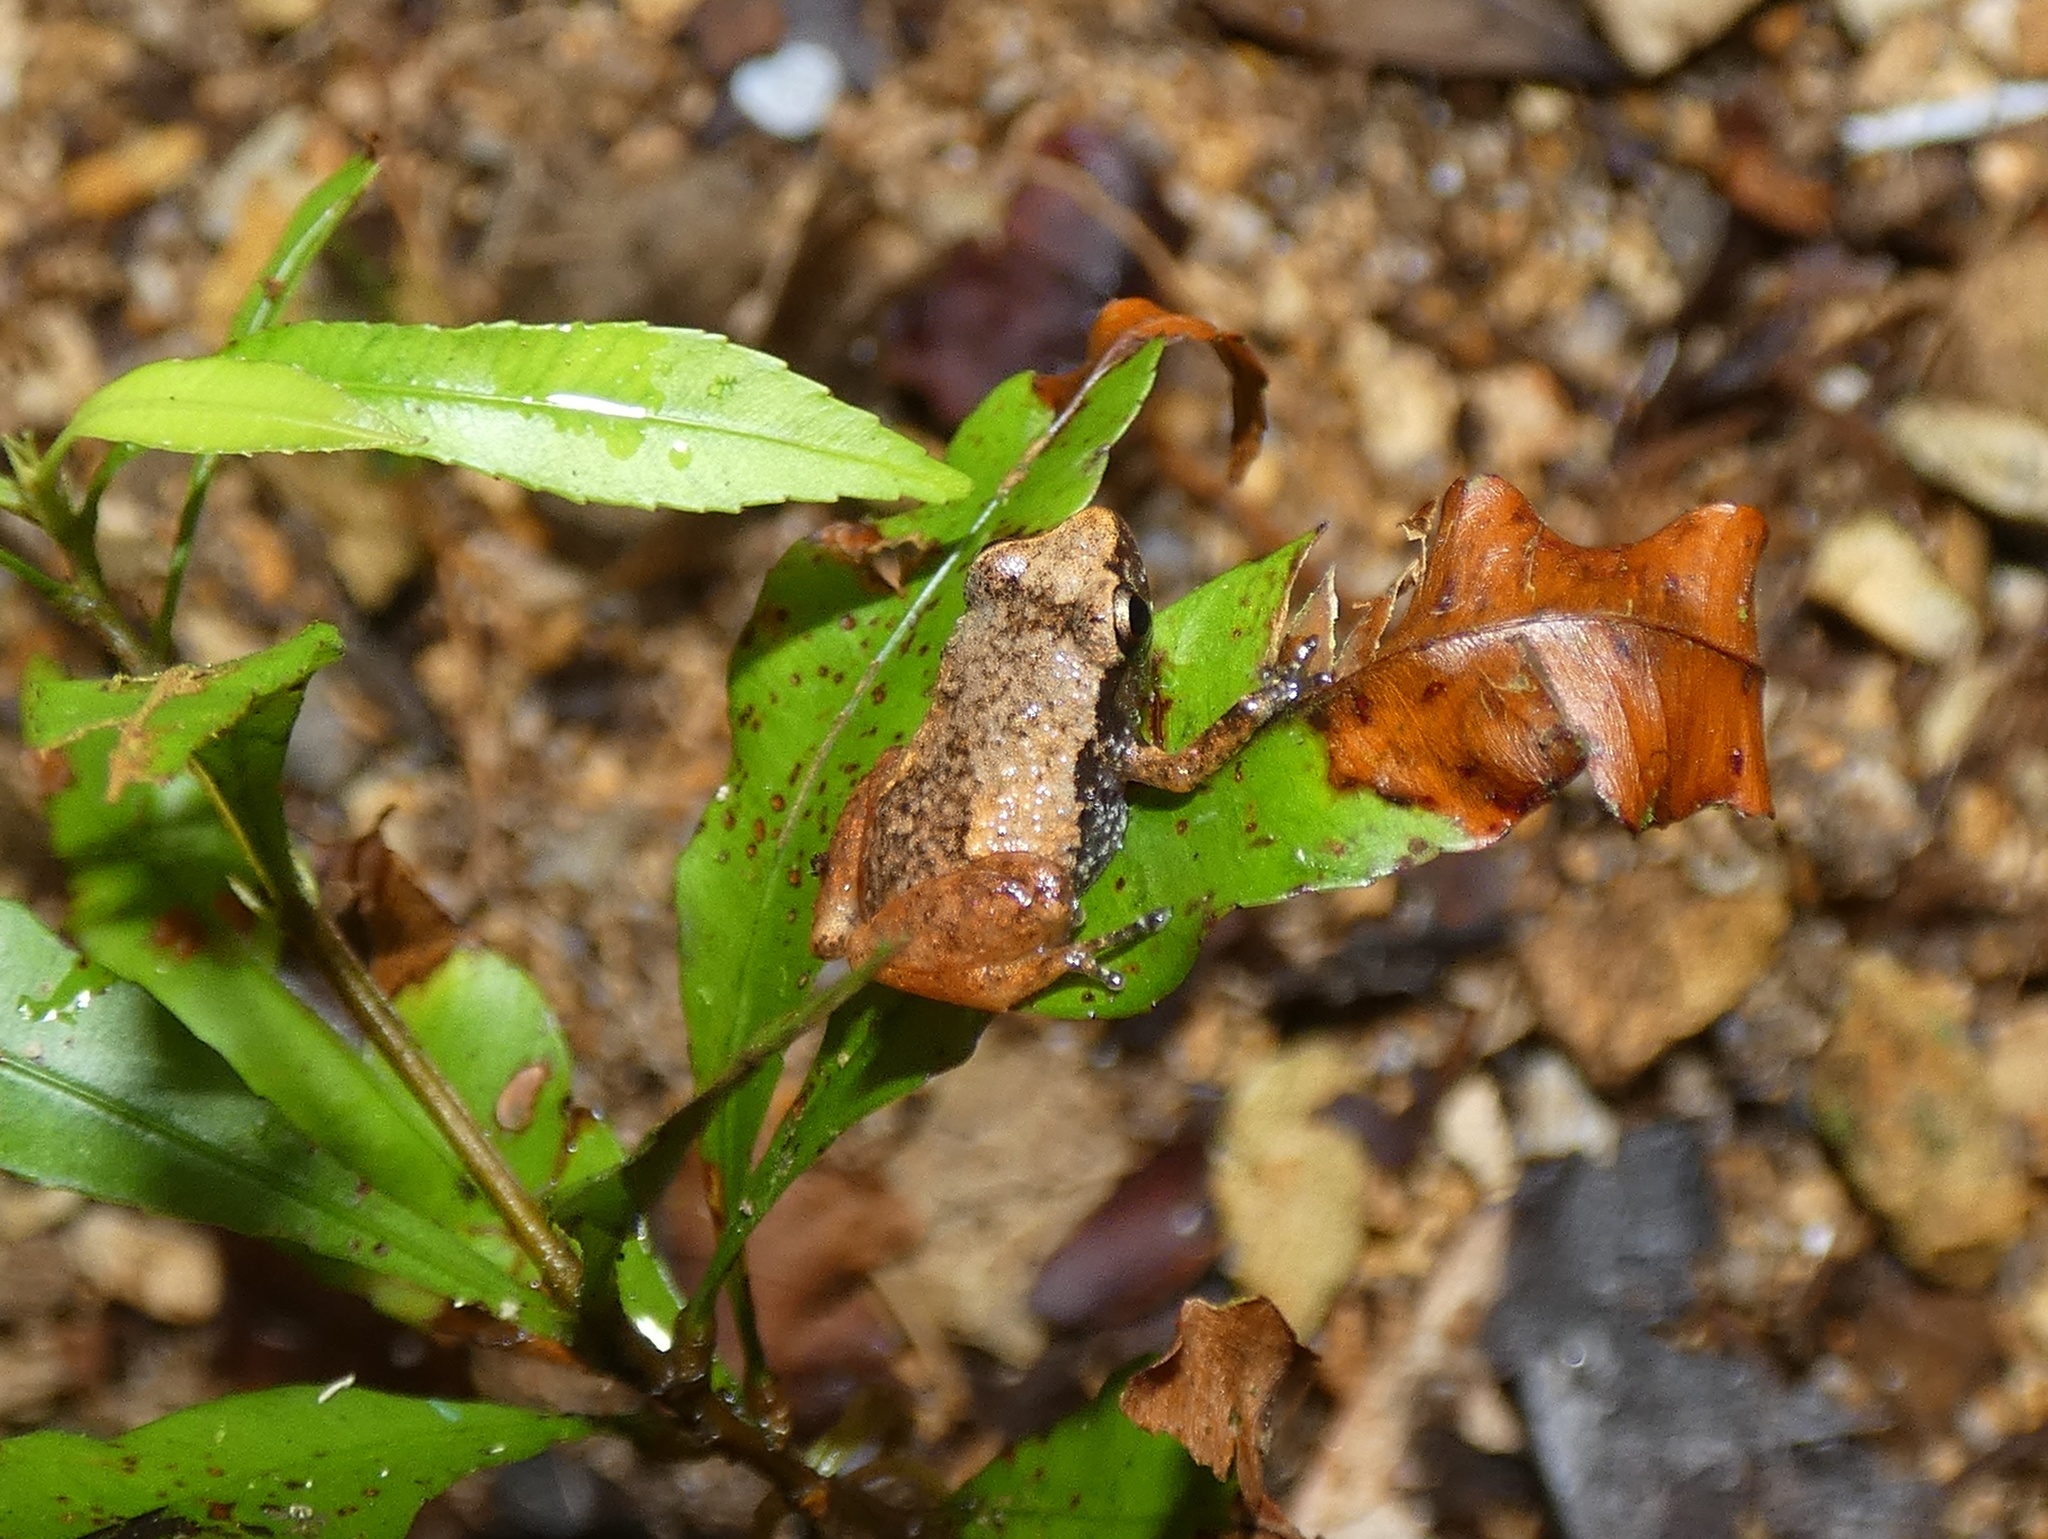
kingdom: Animalia
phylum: Chordata
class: Amphibia
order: Anura
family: Eleutherodactylidae
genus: Diasporus
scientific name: Diasporus quidditus
